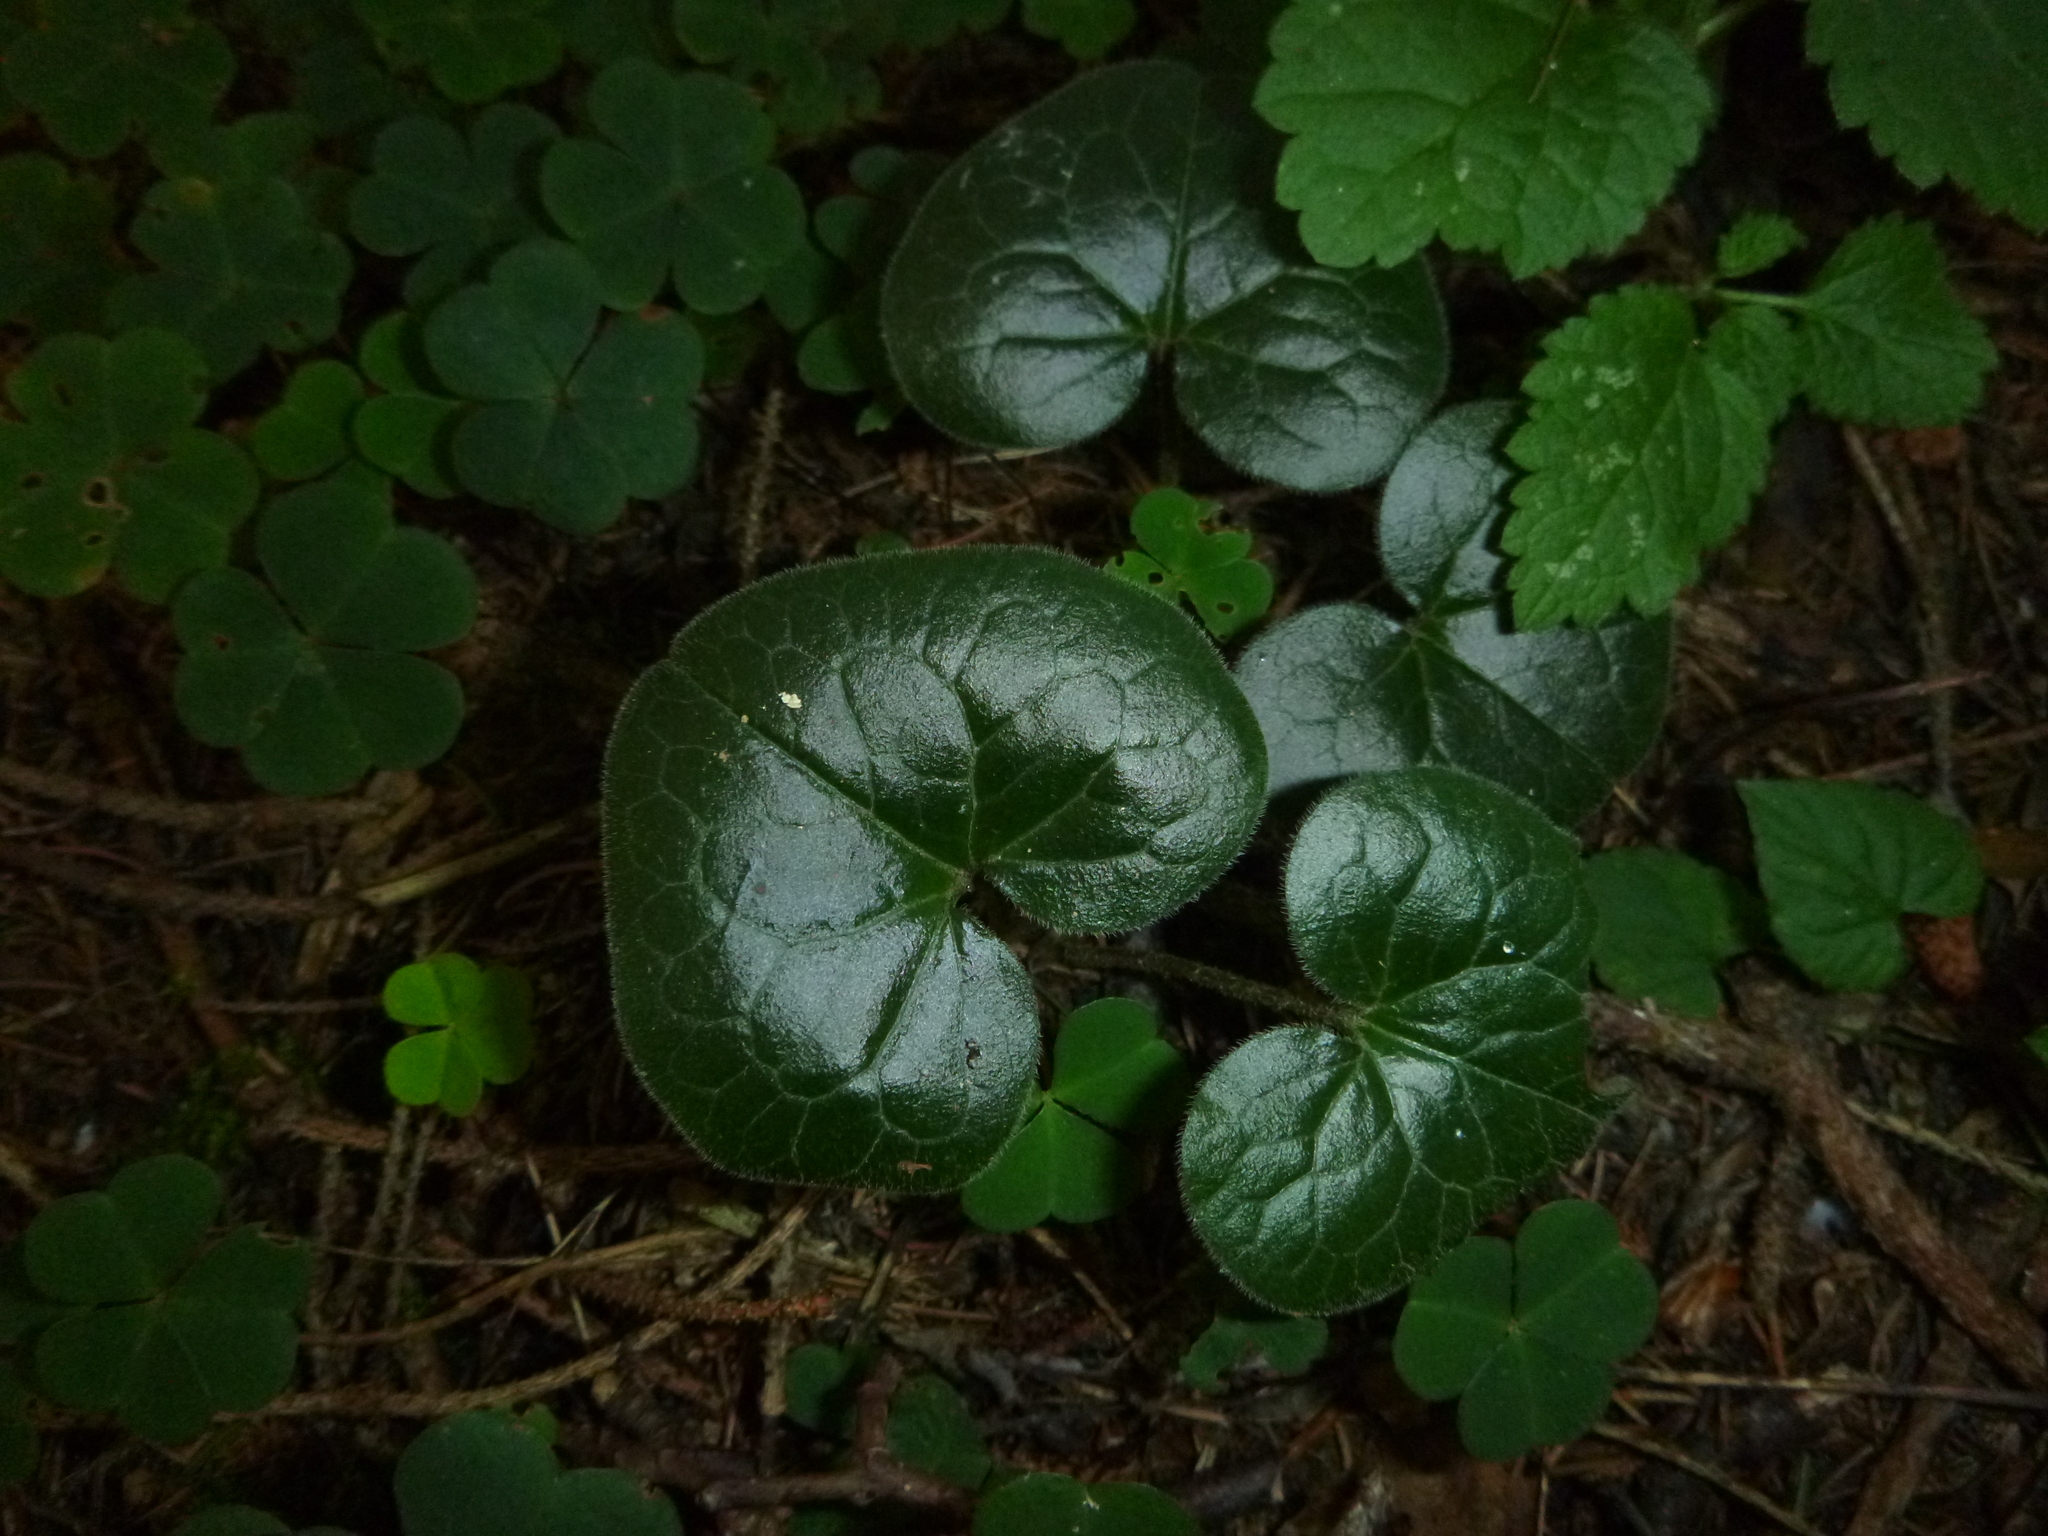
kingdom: Plantae
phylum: Tracheophyta
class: Magnoliopsida
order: Piperales
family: Aristolochiaceae
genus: Asarum
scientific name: Asarum europaeum
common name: Asarabacca
